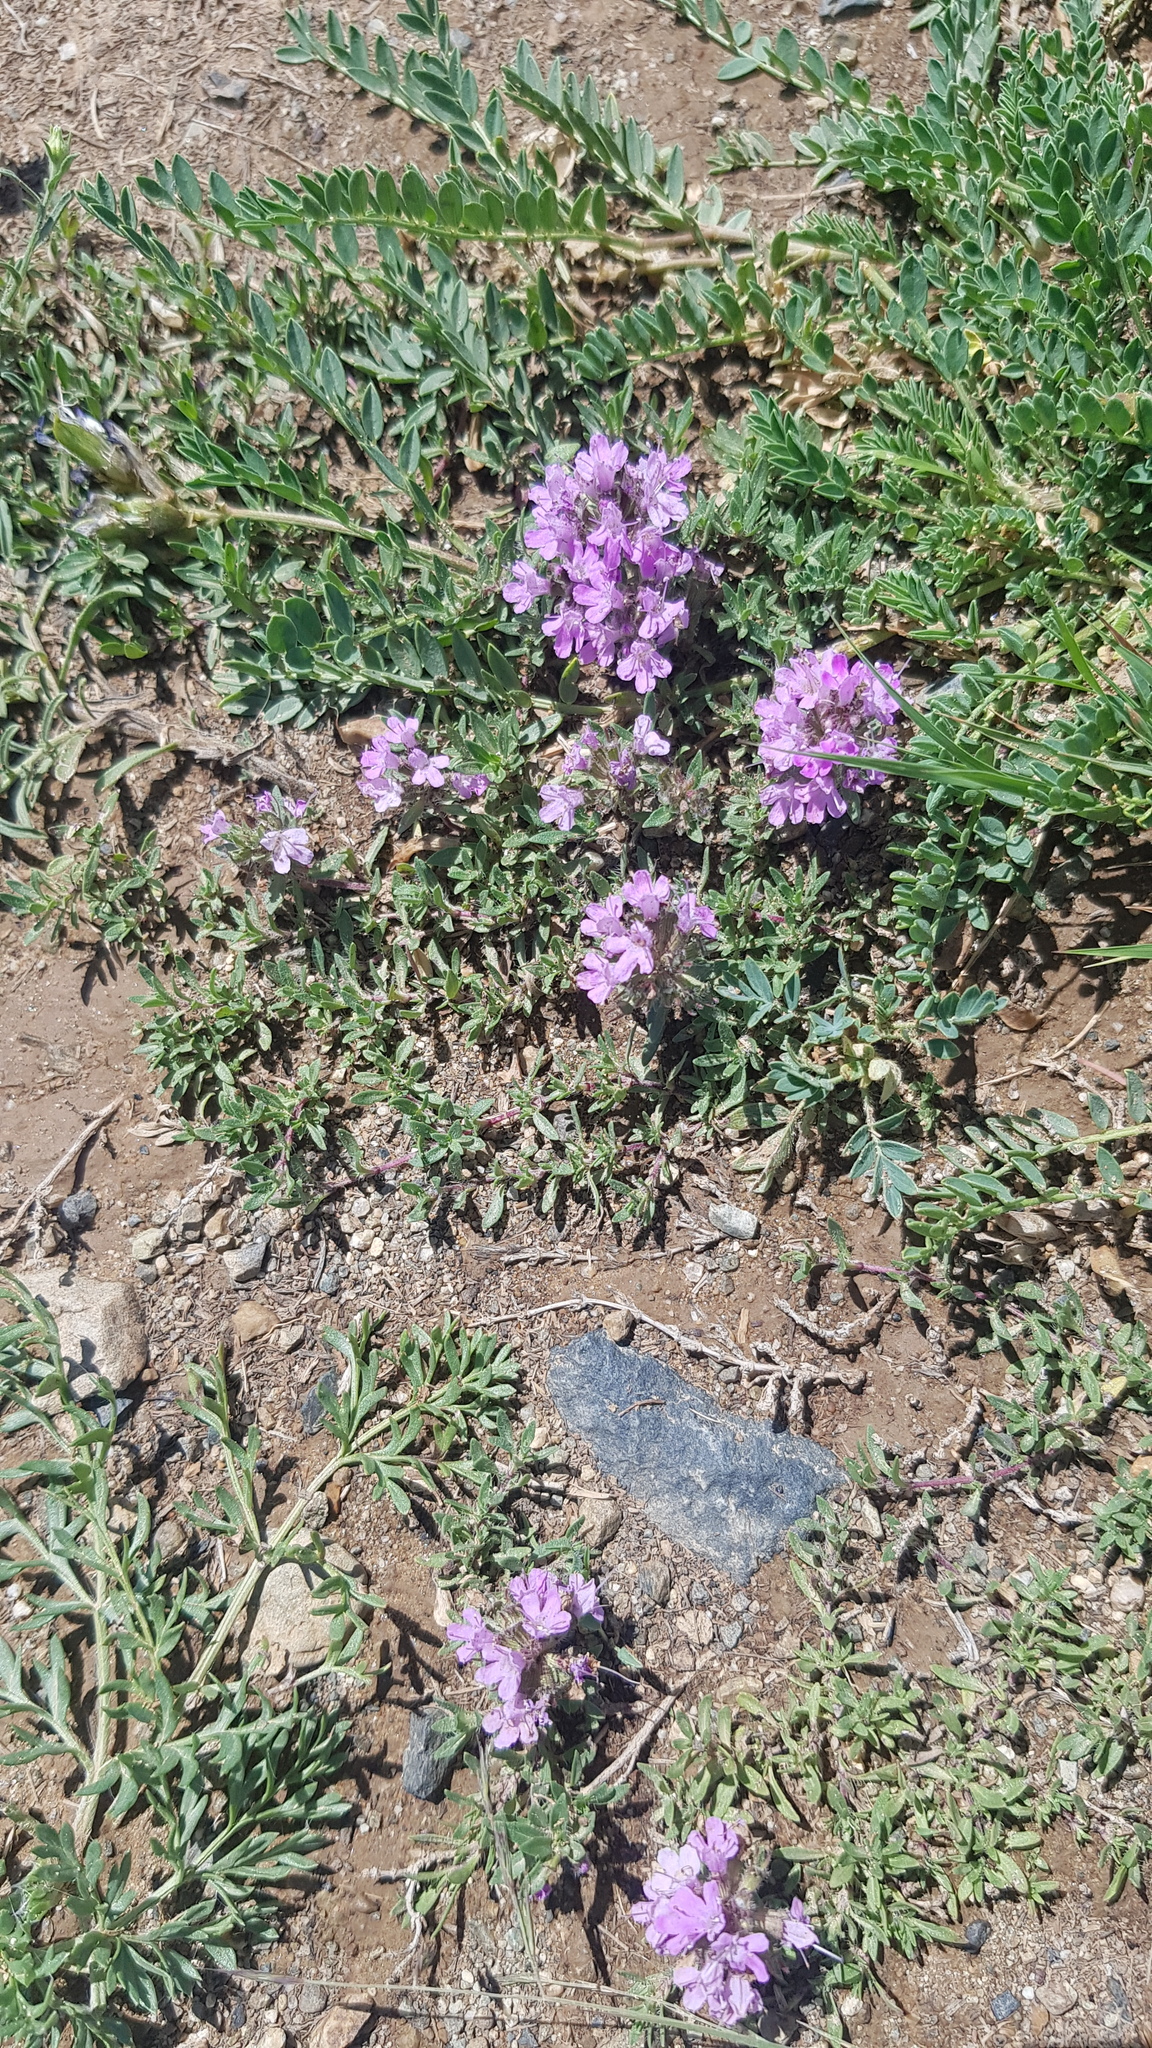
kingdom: Plantae
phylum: Tracheophyta
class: Magnoliopsida
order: Lamiales
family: Lamiaceae
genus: Thymus
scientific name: Thymus gobicus
